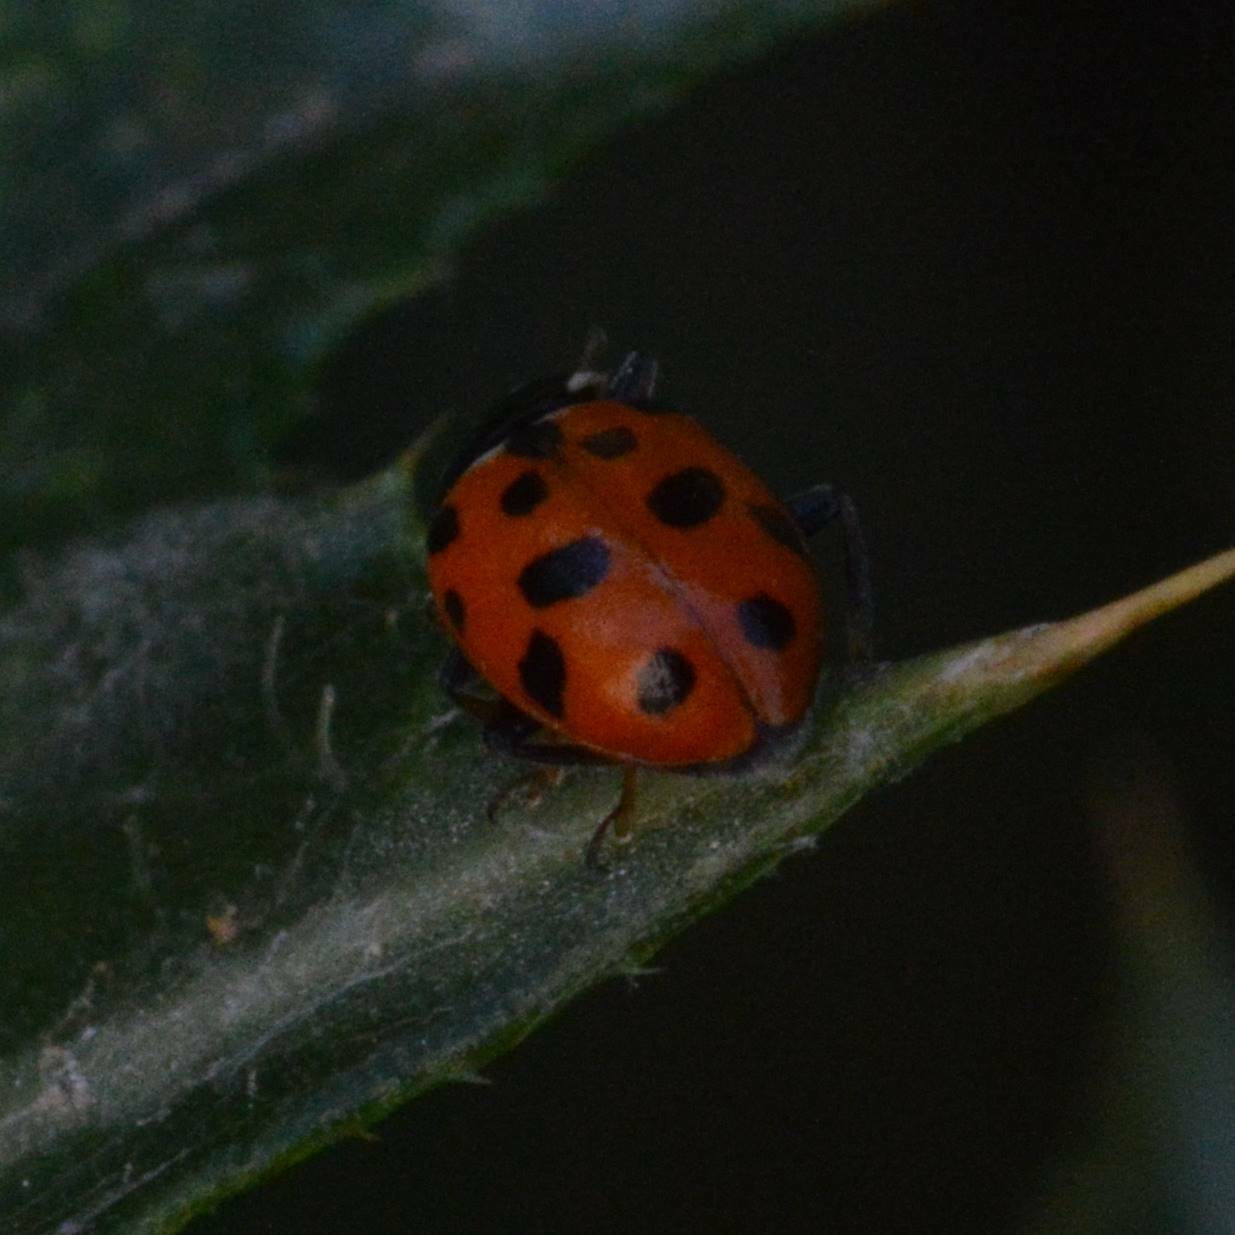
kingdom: Animalia
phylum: Arthropoda
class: Insecta
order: Coleoptera
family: Coccinellidae
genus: Hippodamia
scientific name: Hippodamia variegata
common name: Ladybird beetle
